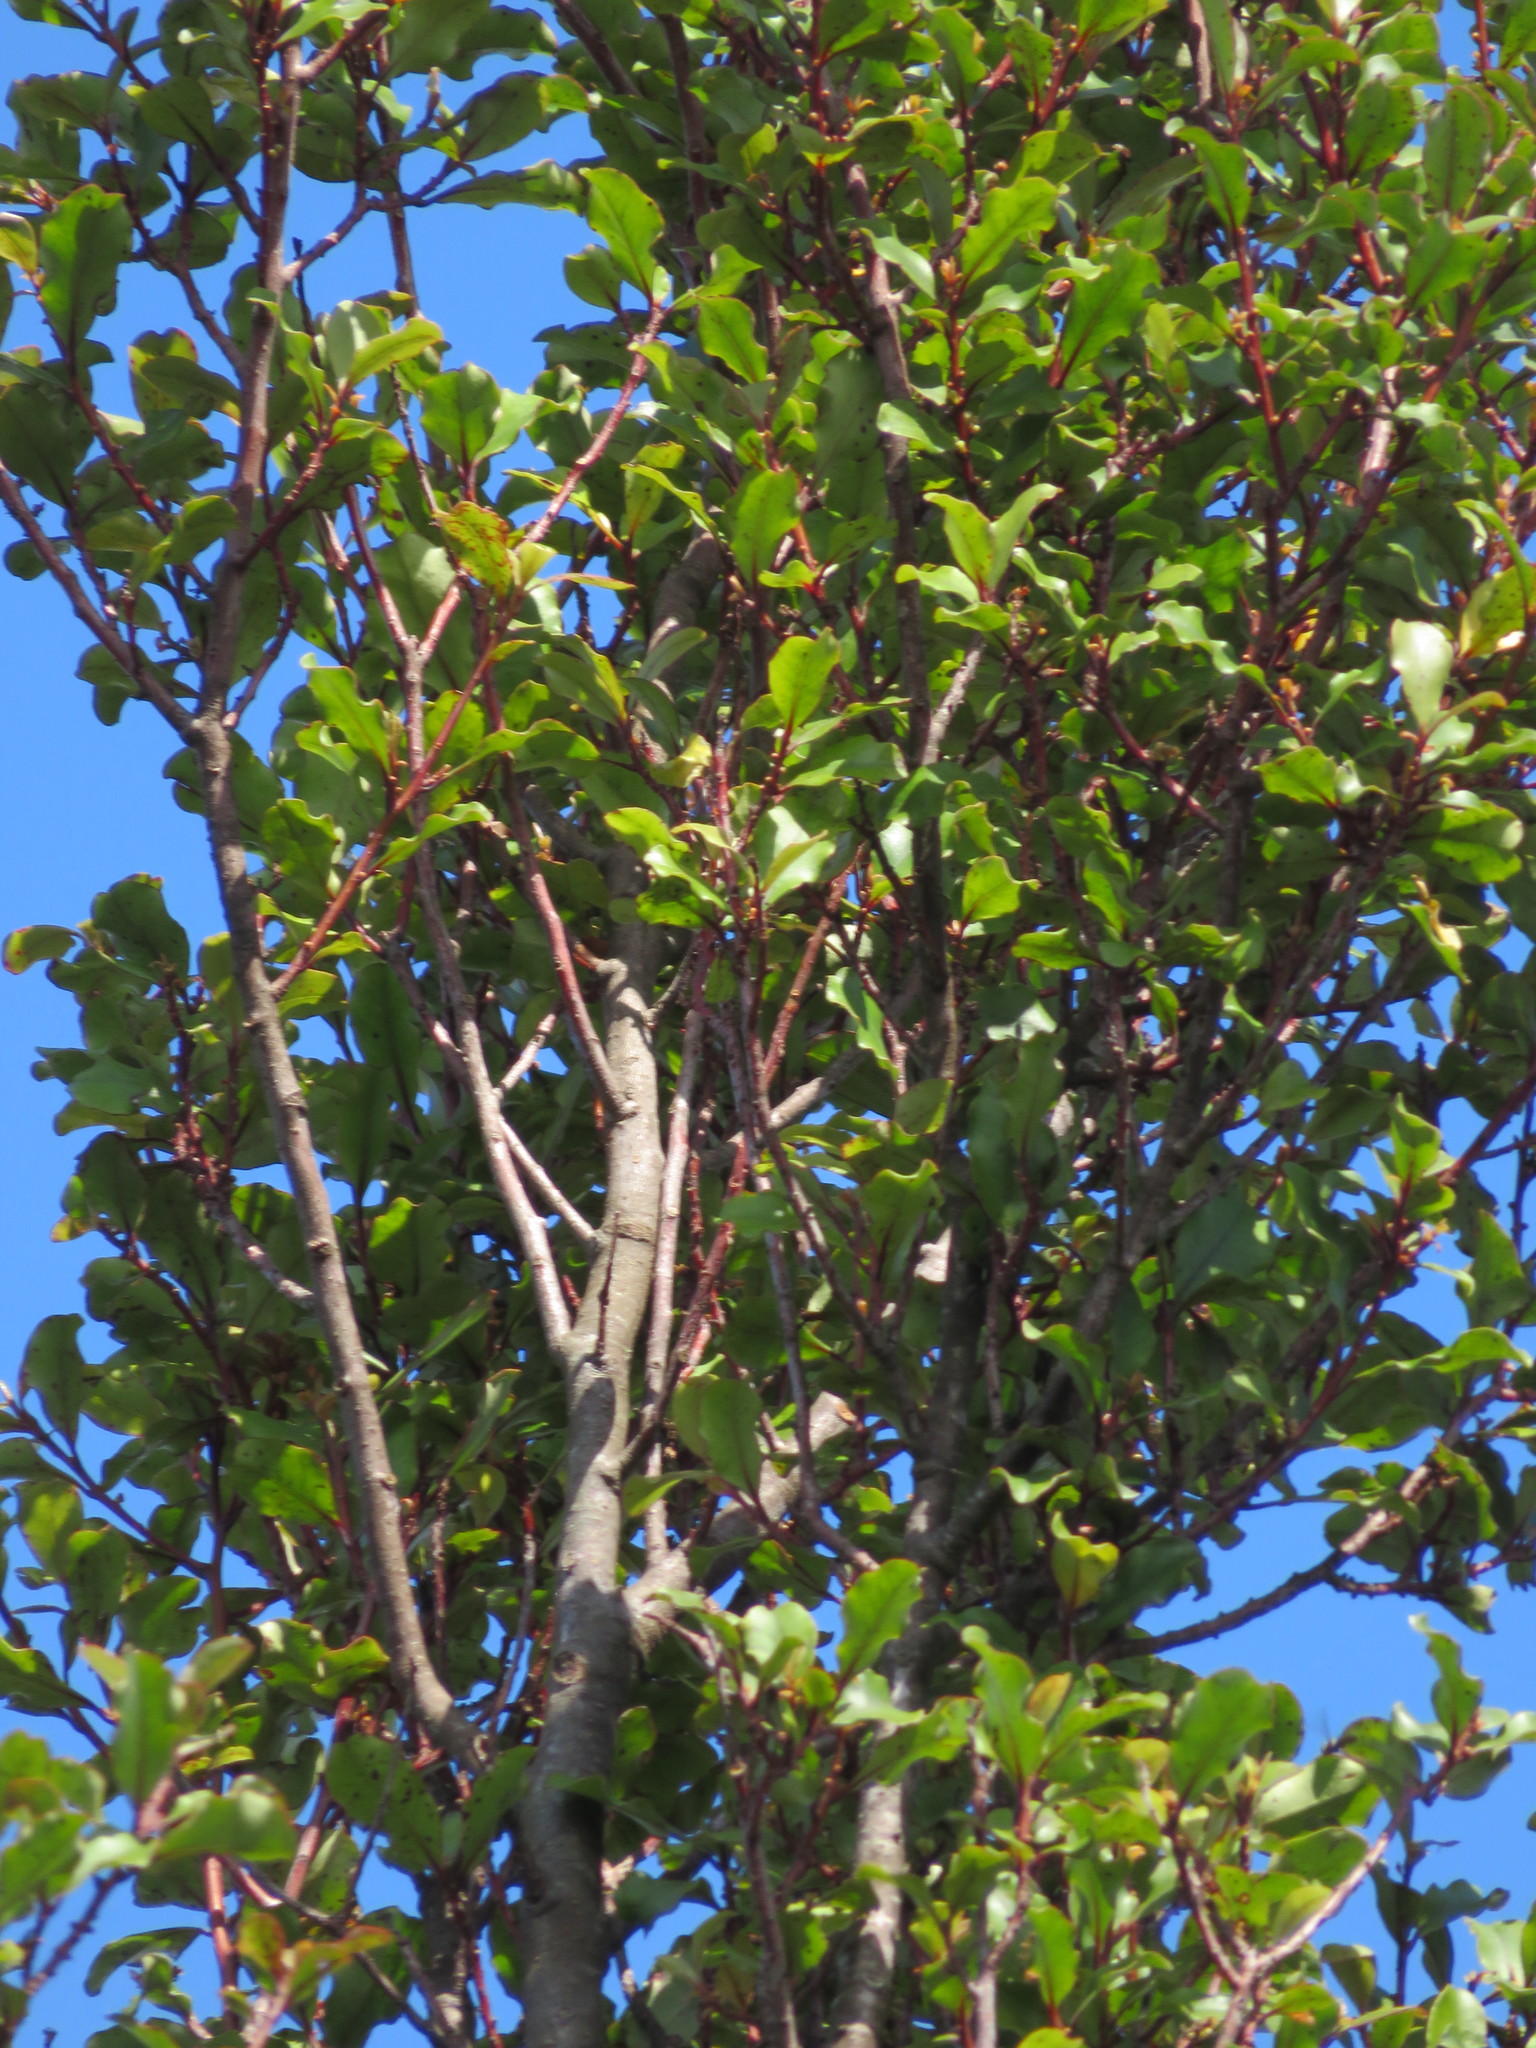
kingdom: Plantae
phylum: Tracheophyta
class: Magnoliopsida
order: Ericales
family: Primulaceae
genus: Myrsine
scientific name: Myrsine australis
